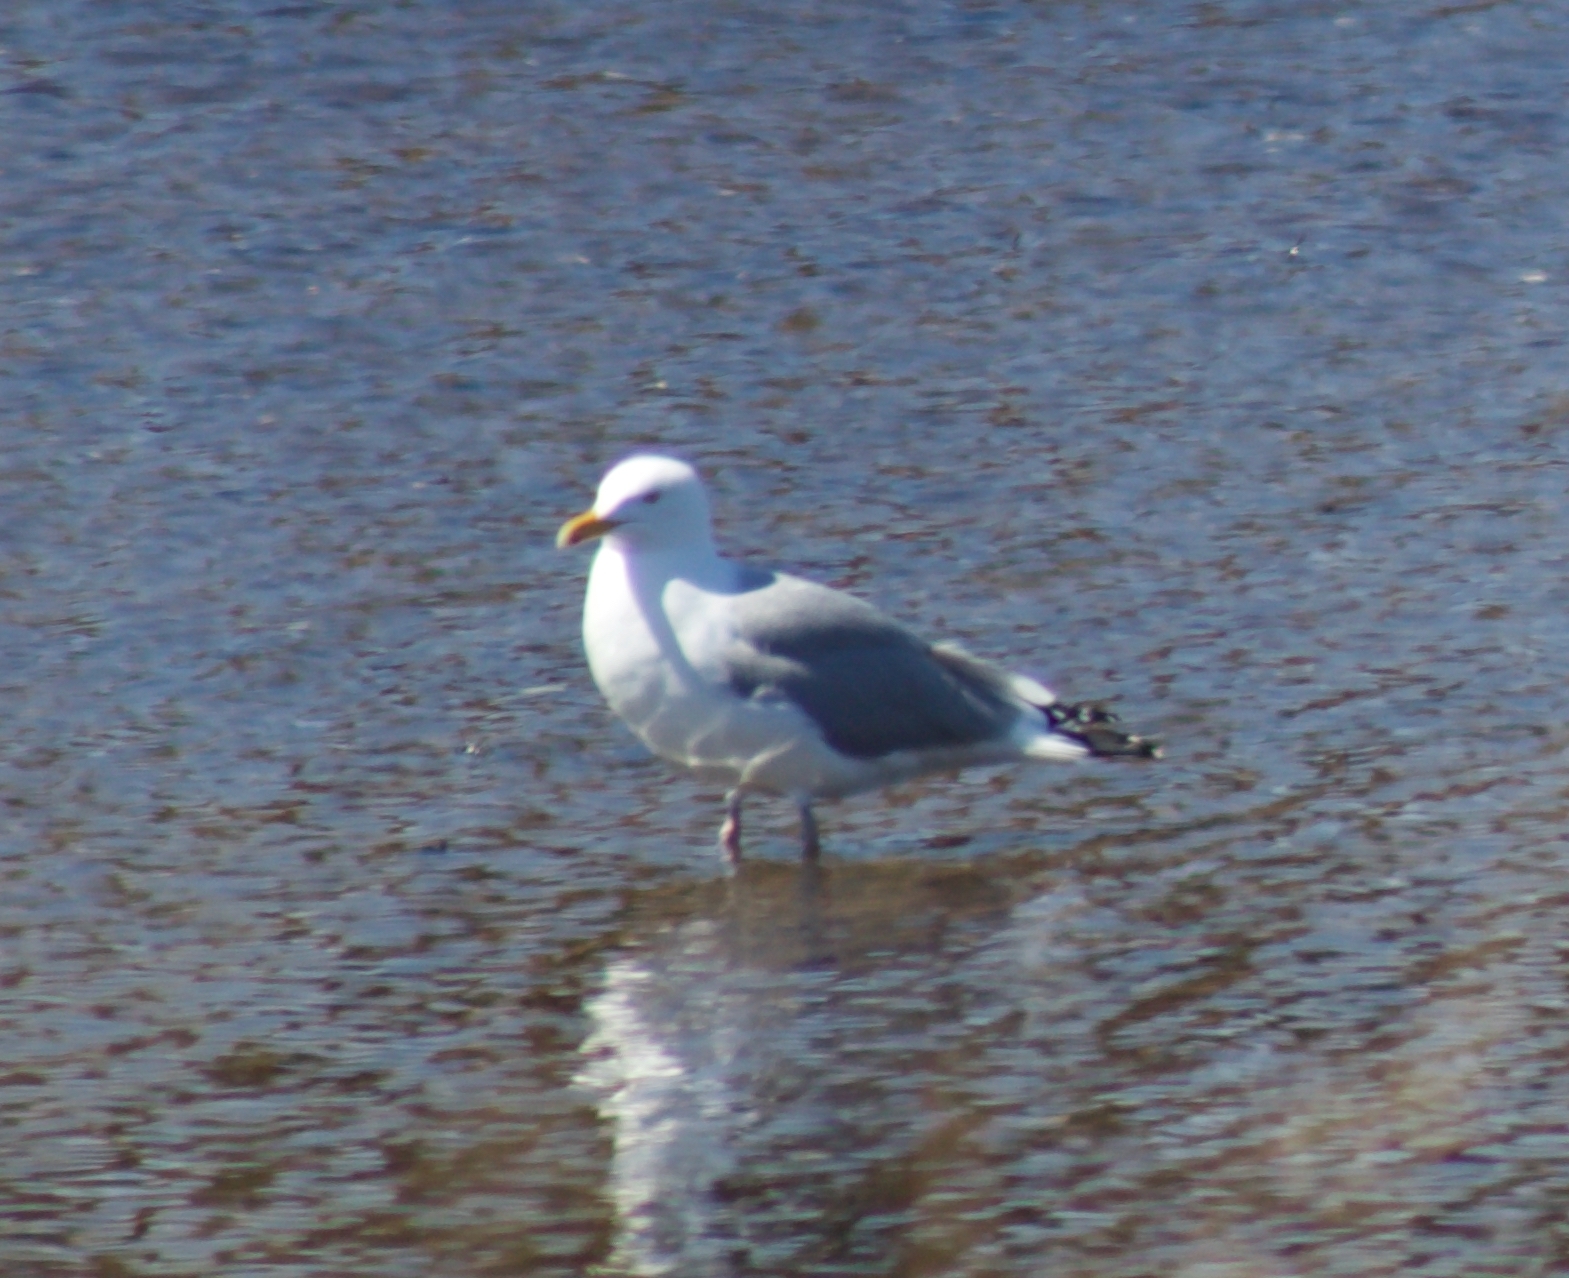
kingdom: Animalia
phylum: Chordata
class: Aves
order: Charadriiformes
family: Laridae
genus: Larus
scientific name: Larus argentatus
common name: Herring gull
